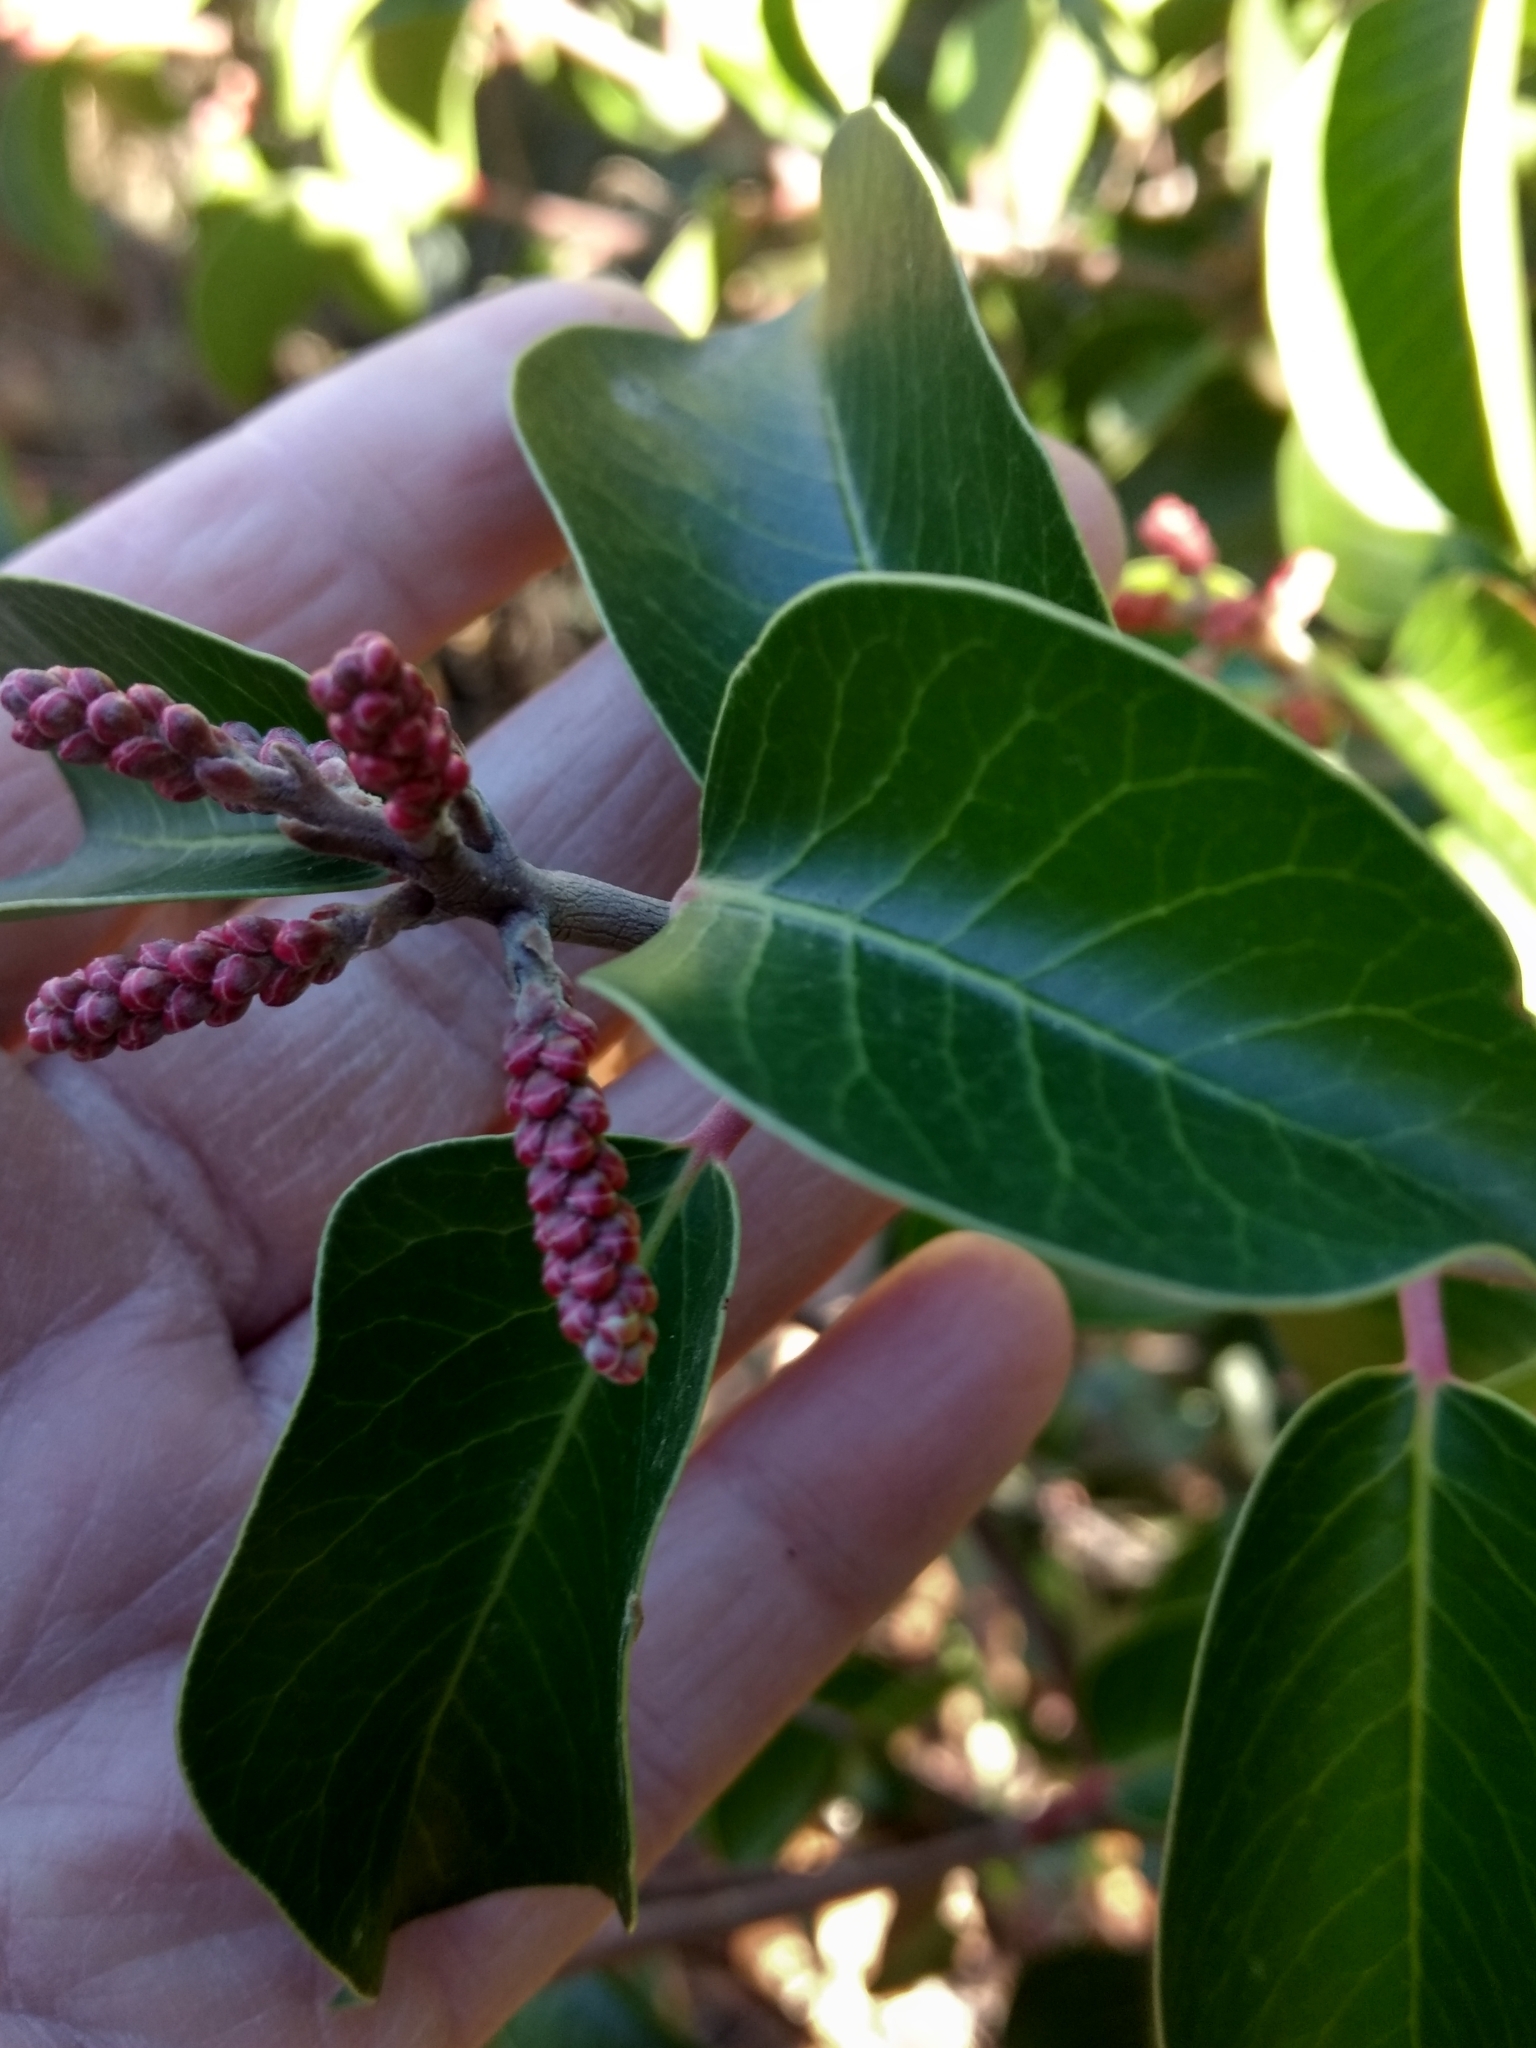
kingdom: Plantae
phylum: Tracheophyta
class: Magnoliopsida
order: Sapindales
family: Anacardiaceae
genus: Rhus
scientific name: Rhus ovata
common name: Sugar sumac
